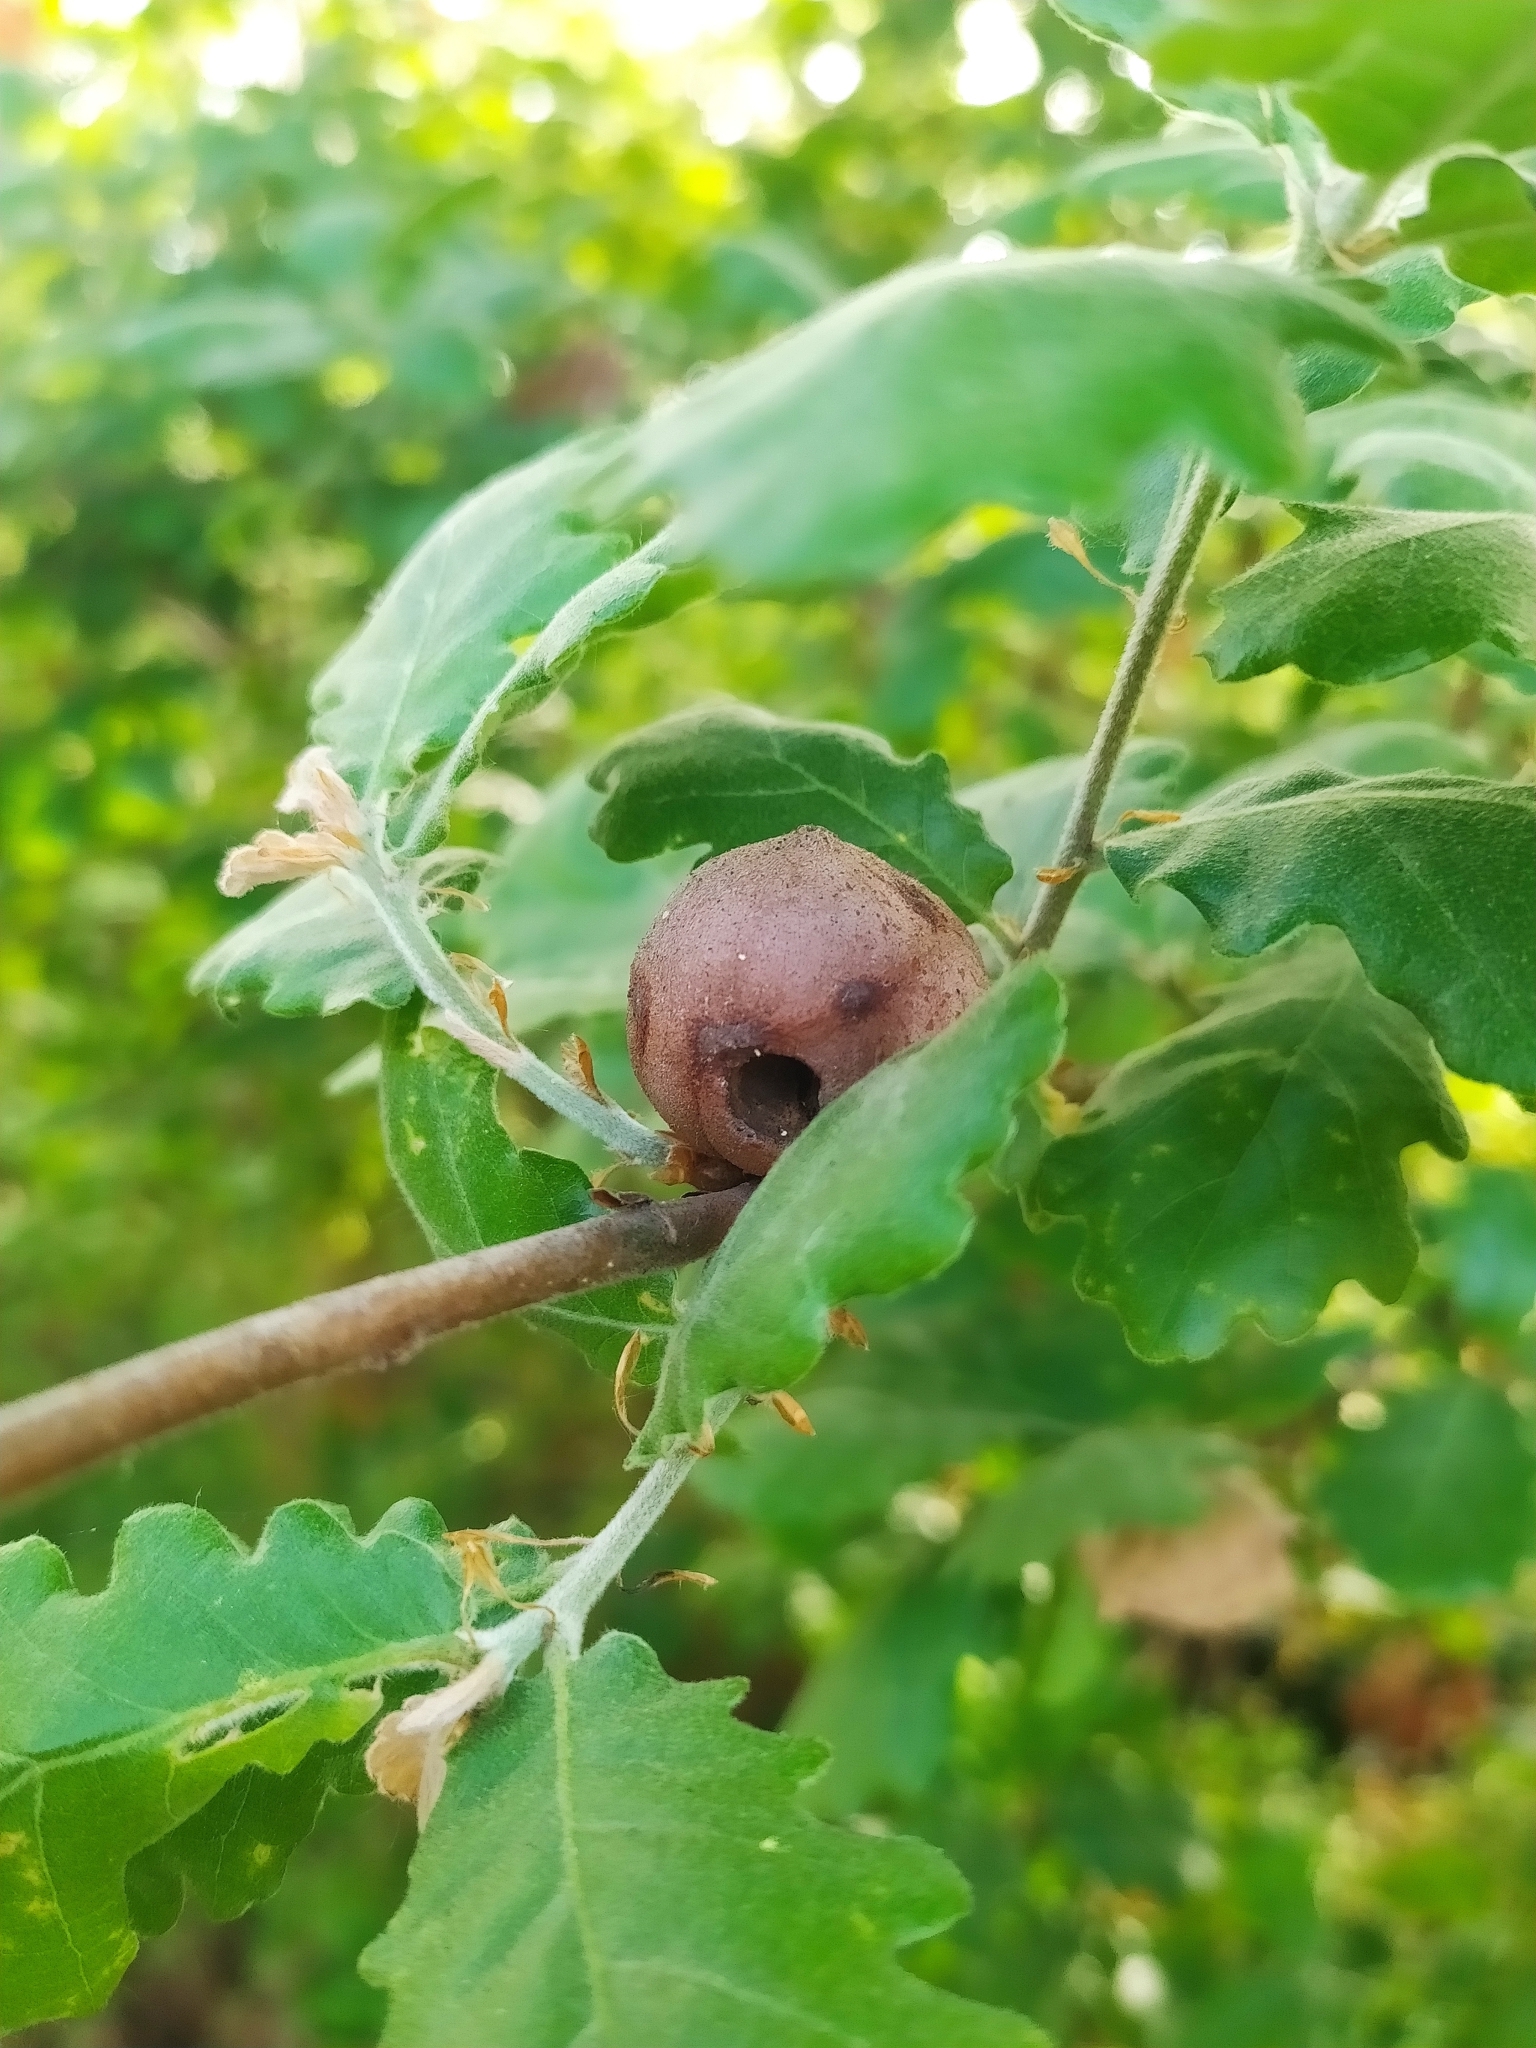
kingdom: Animalia
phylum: Arthropoda
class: Insecta
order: Hymenoptera
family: Cynipidae
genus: Andricus
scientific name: Andricus quercustozae
